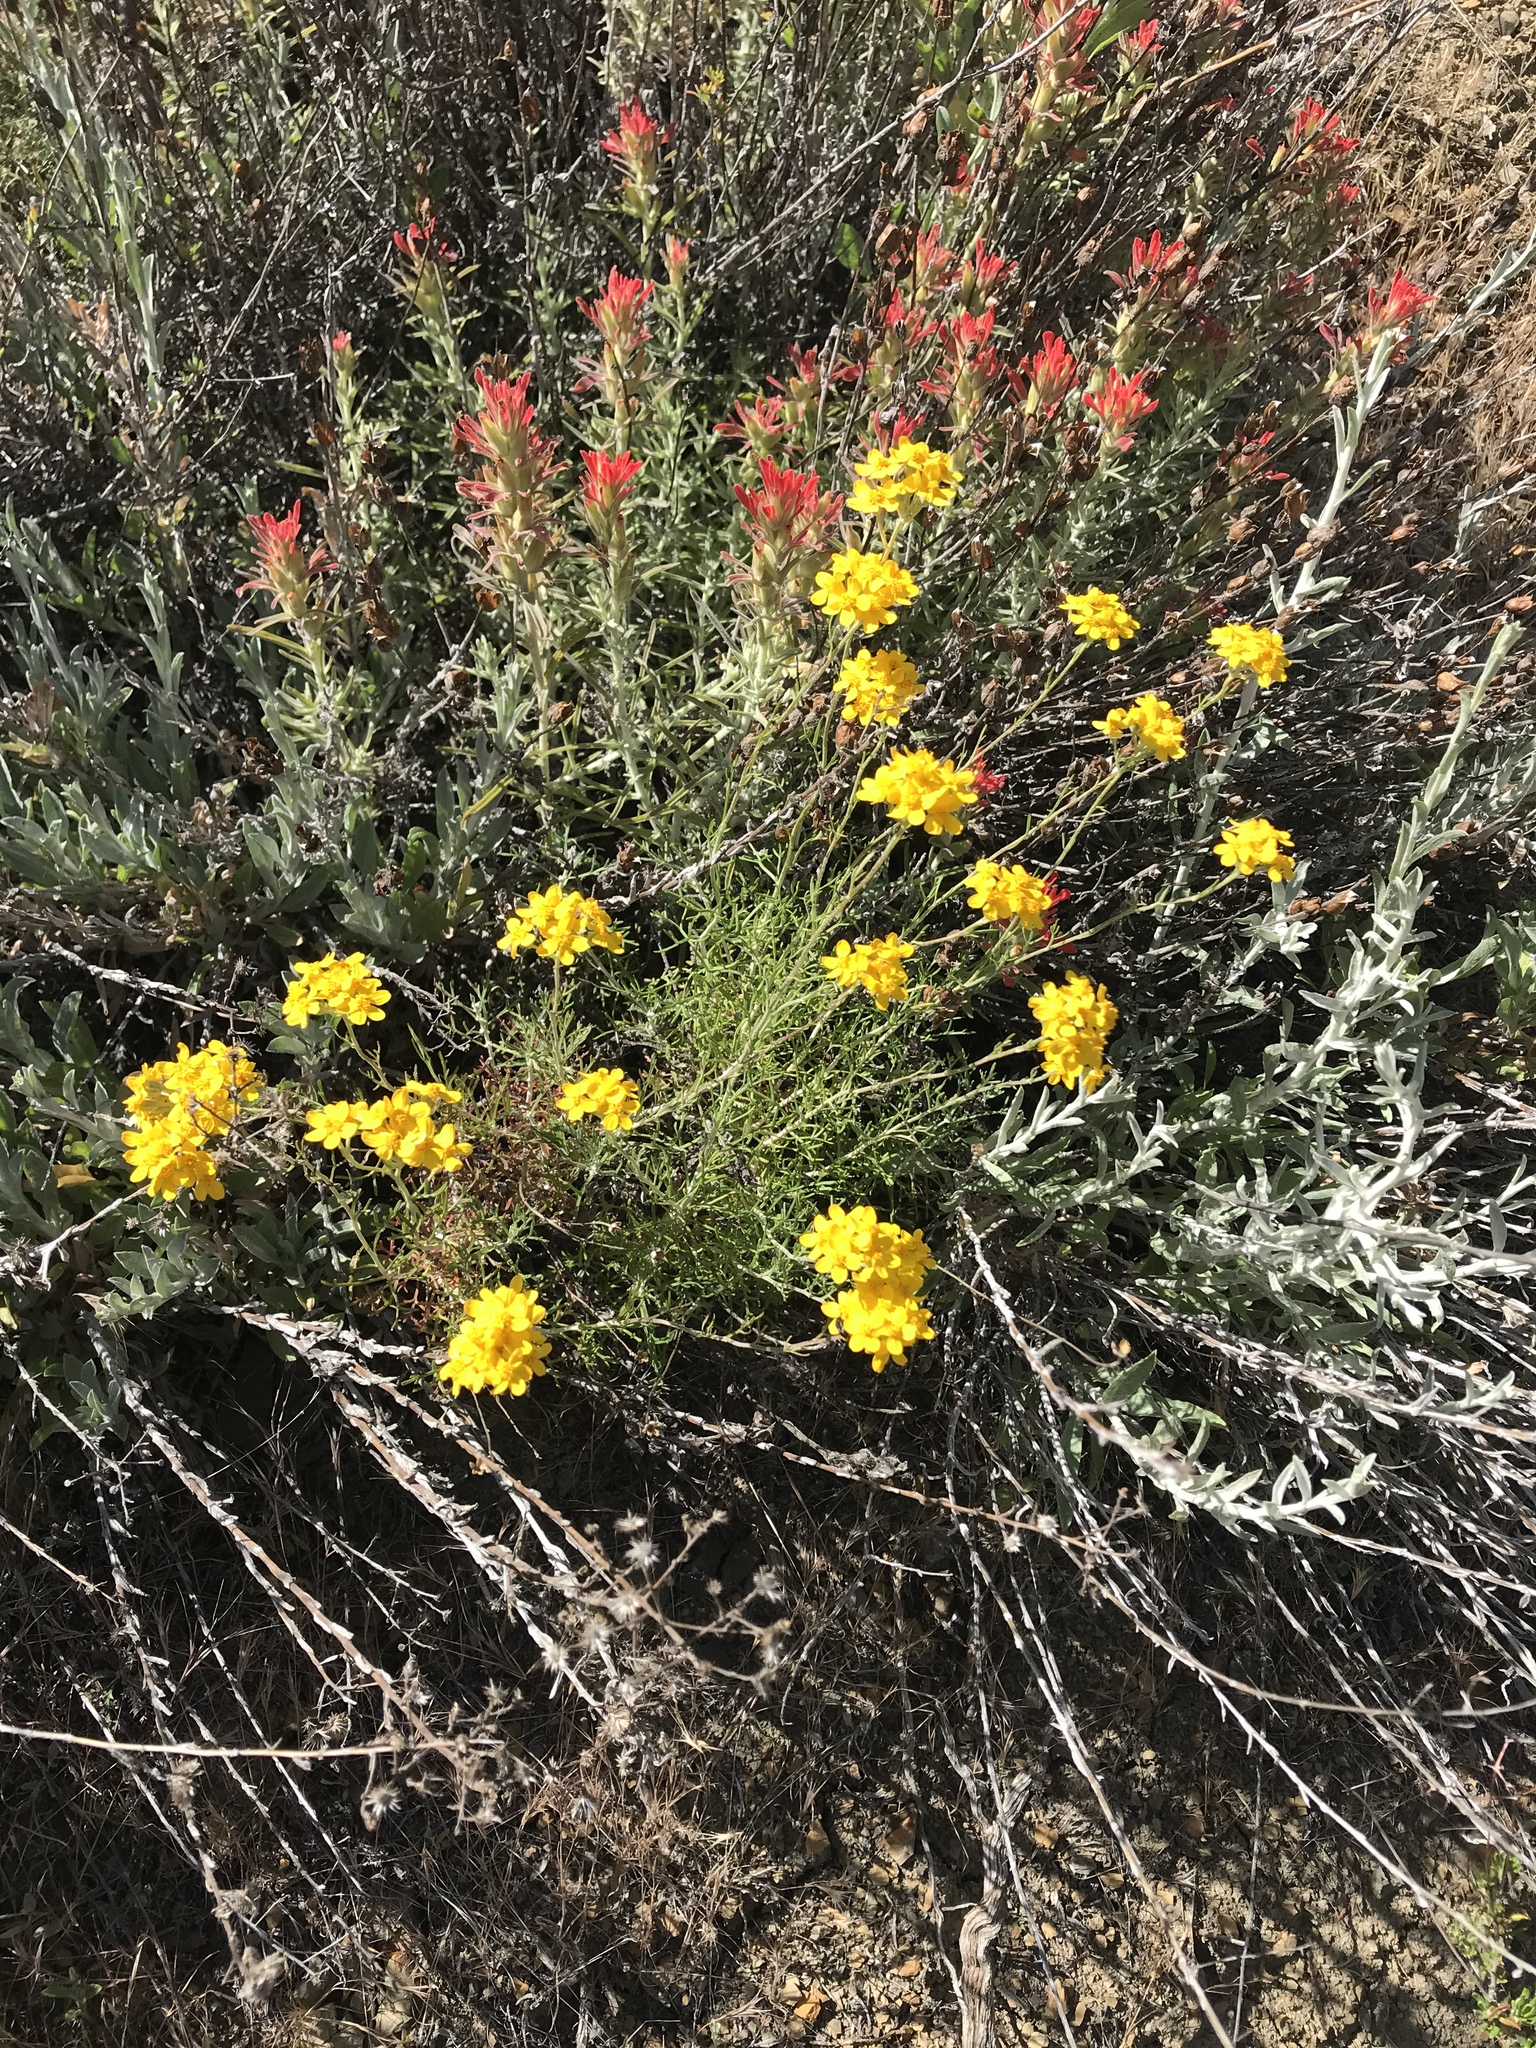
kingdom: Plantae
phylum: Tracheophyta
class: Magnoliopsida
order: Asterales
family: Asteraceae
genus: Eriophyllum
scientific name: Eriophyllum confertiflorum
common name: Golden-yarrow
